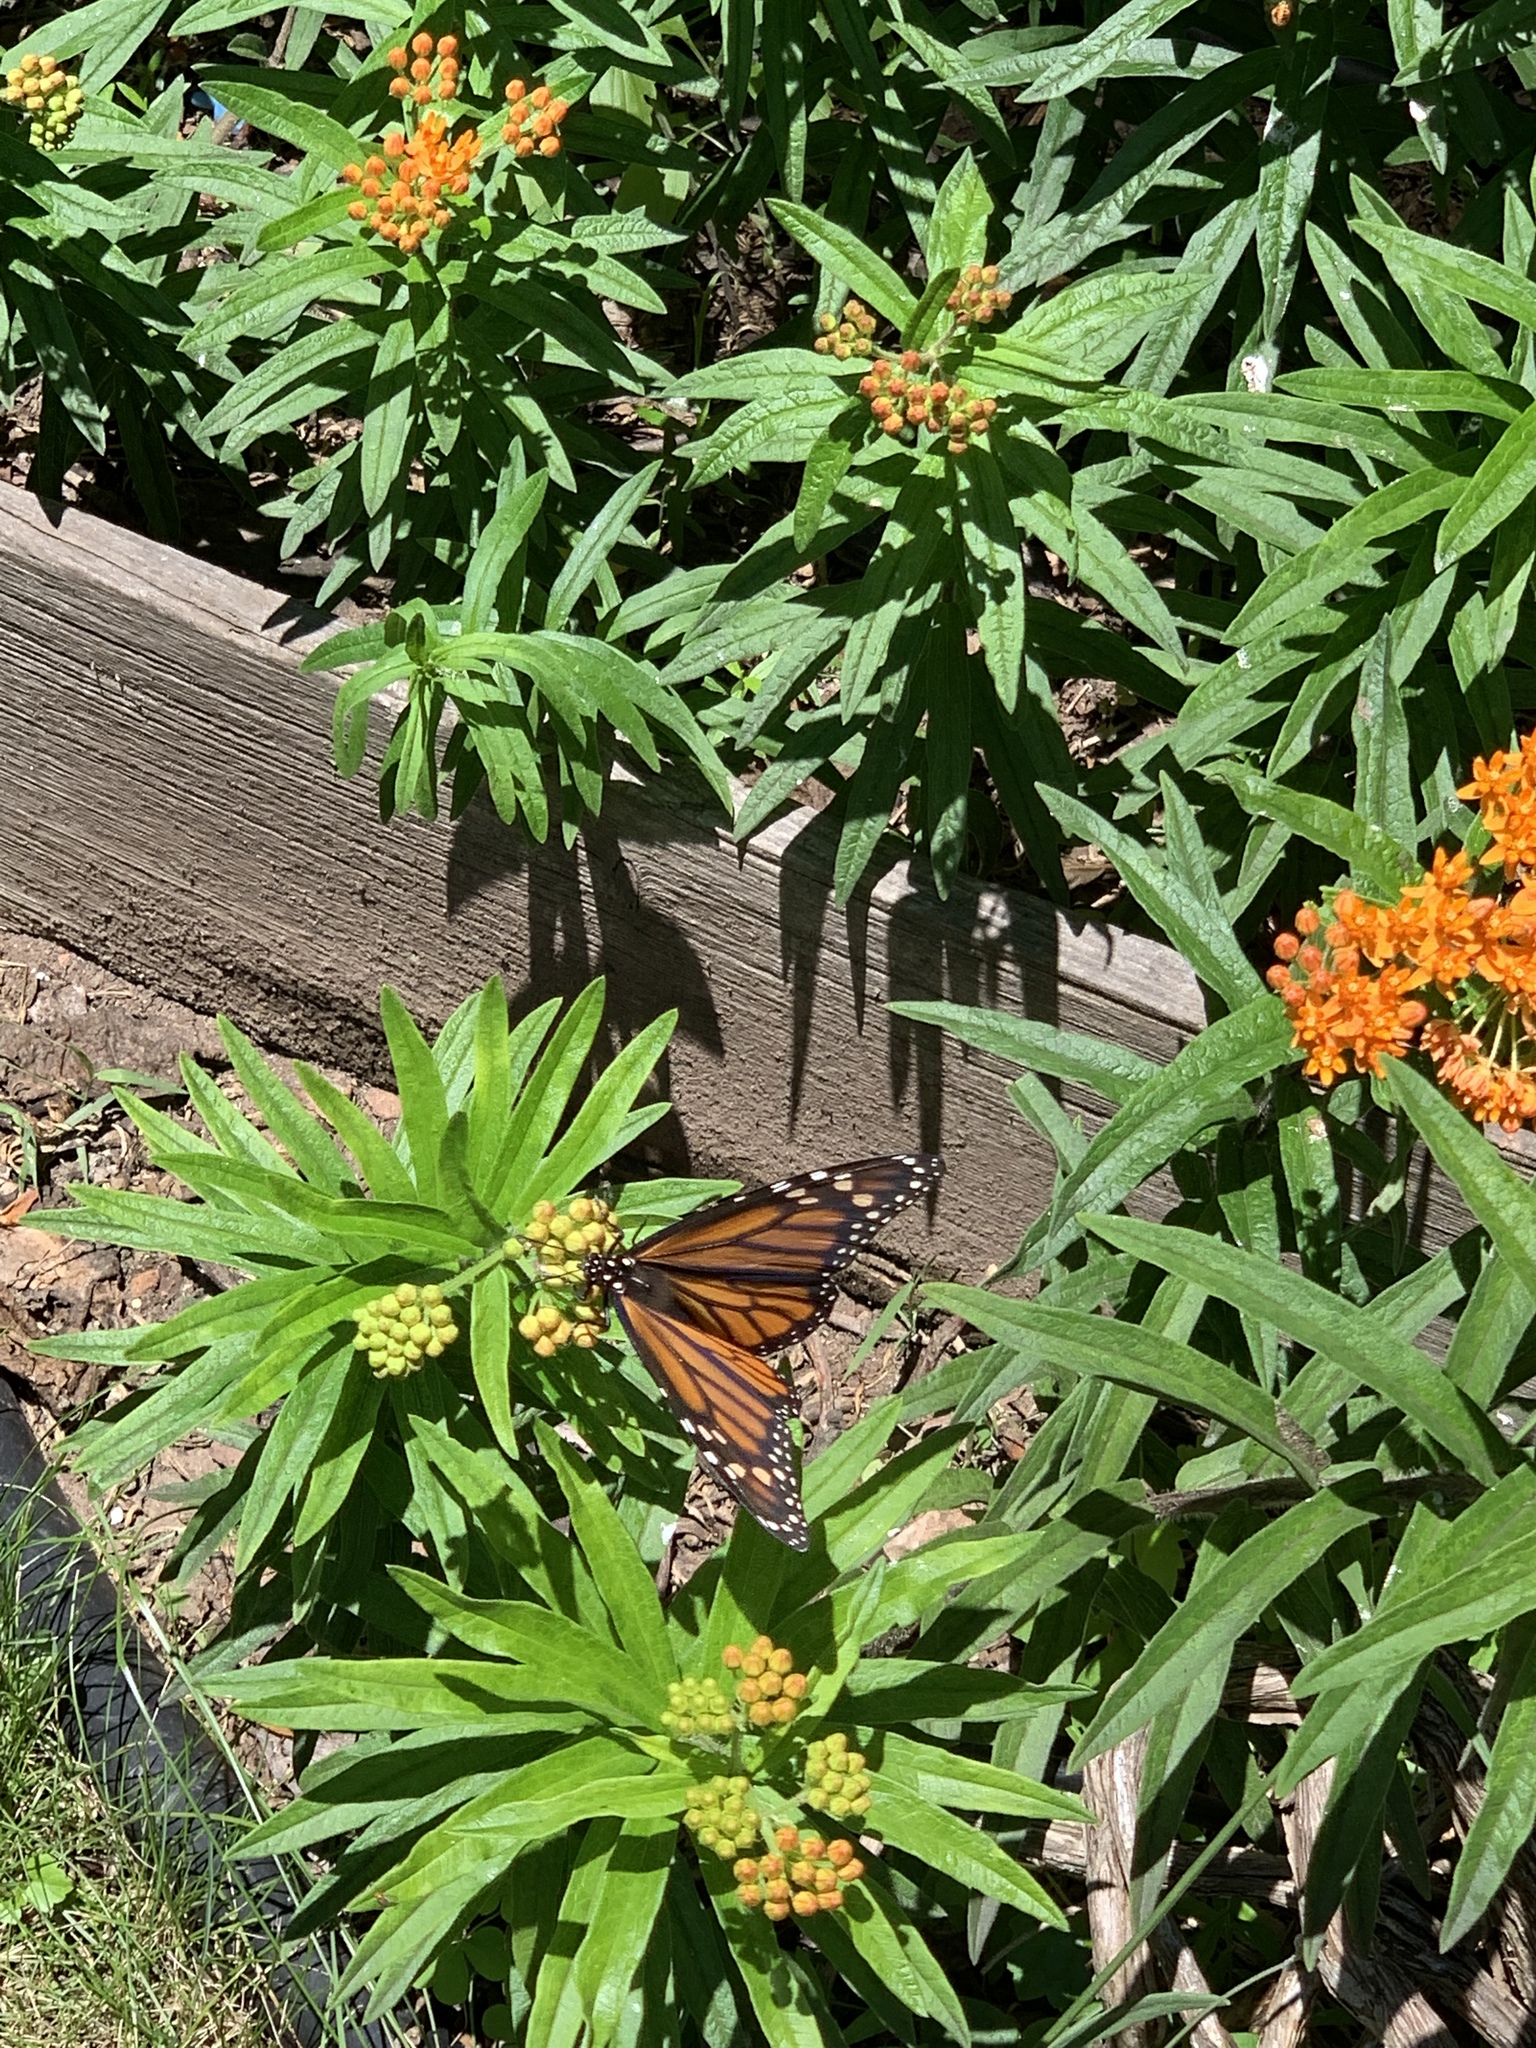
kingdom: Animalia
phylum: Arthropoda
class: Insecta
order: Lepidoptera
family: Nymphalidae
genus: Danaus
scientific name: Danaus plexippus
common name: Monarch
